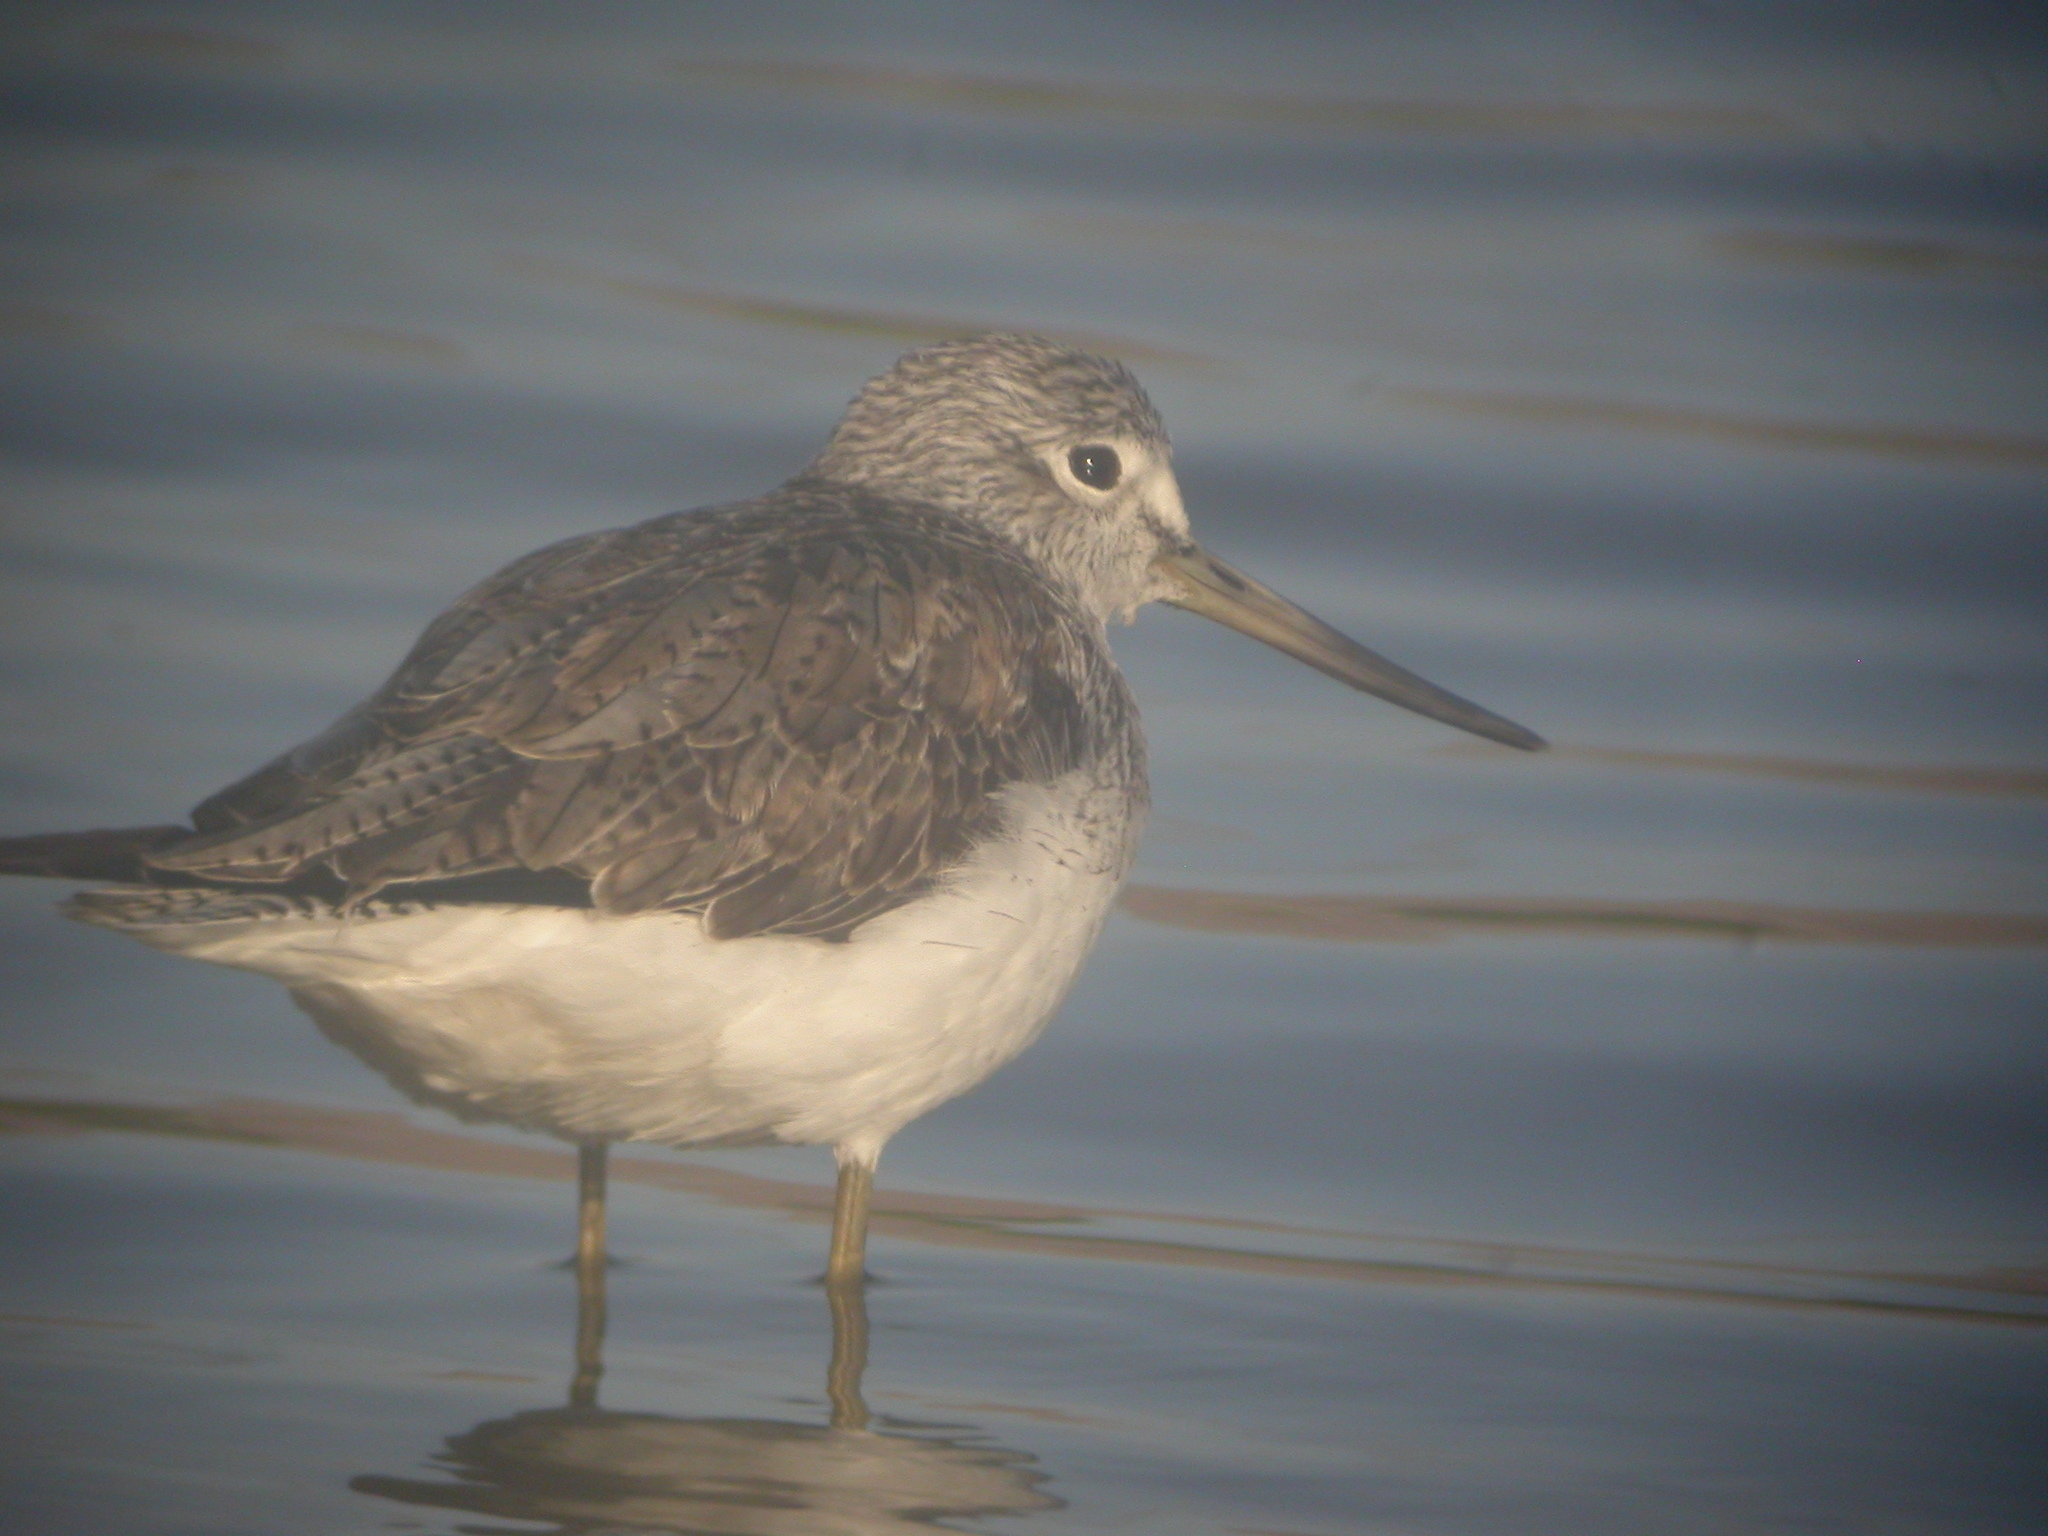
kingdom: Animalia
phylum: Chordata
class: Aves
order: Charadriiformes
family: Scolopacidae
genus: Tringa
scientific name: Tringa nebularia
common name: Common greenshank
